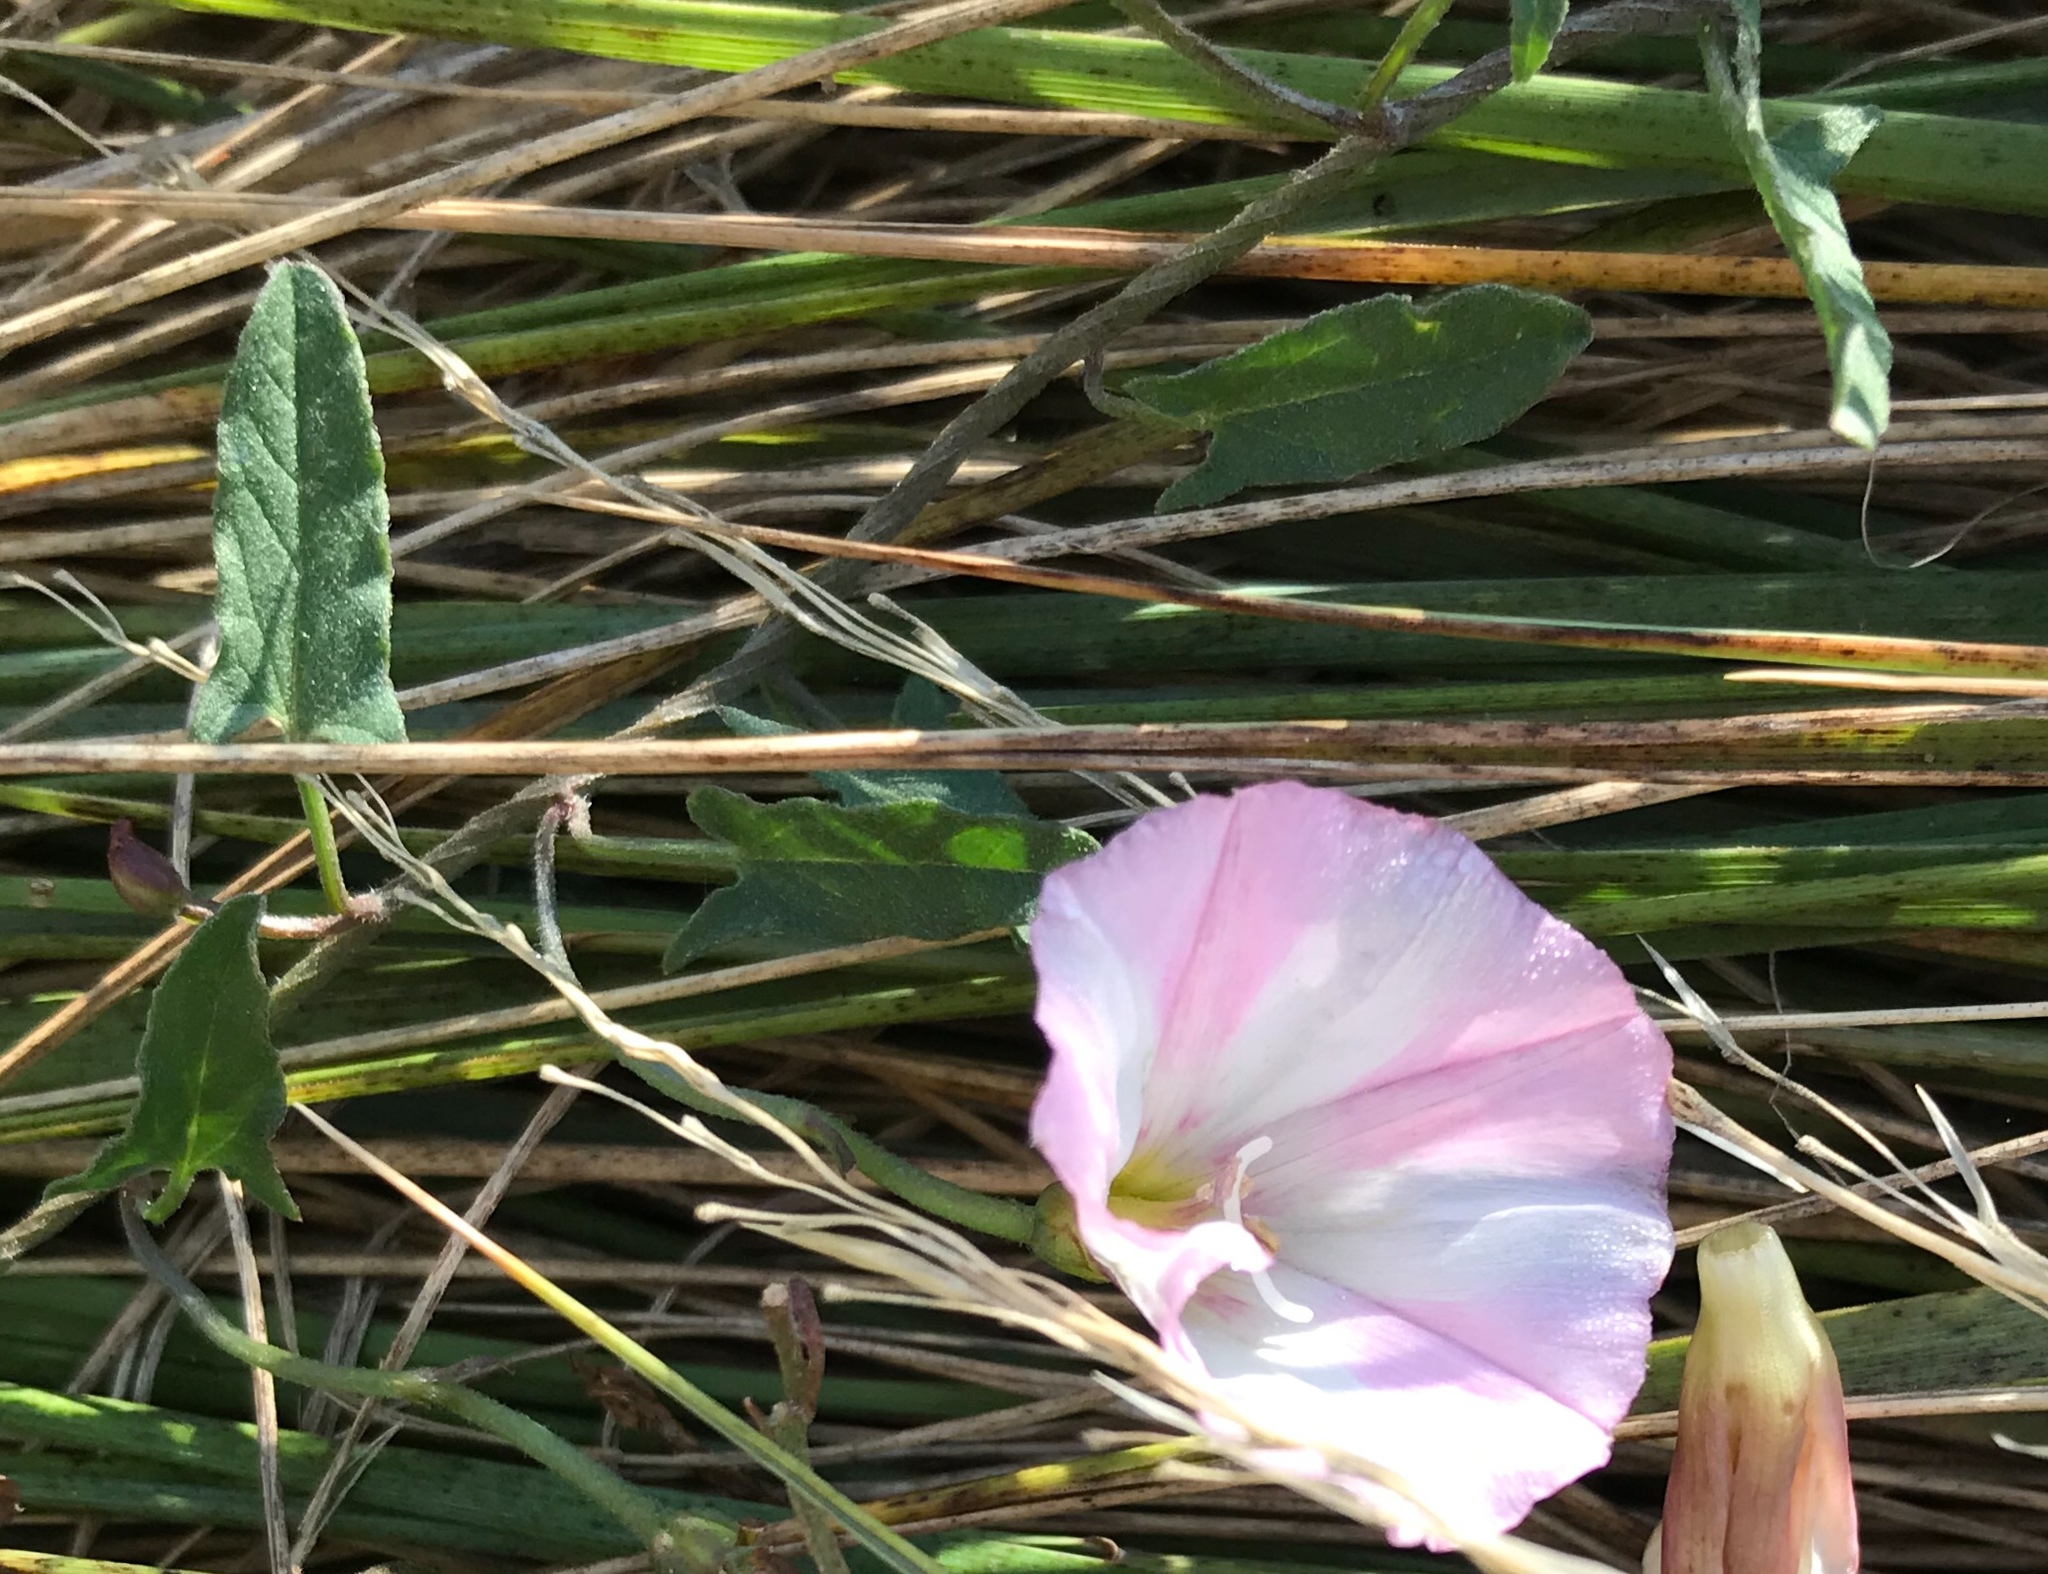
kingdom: Plantae
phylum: Tracheophyta
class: Magnoliopsida
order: Solanales
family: Convolvulaceae
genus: Convolvulus
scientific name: Convolvulus arvensis
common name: Field bindweed
